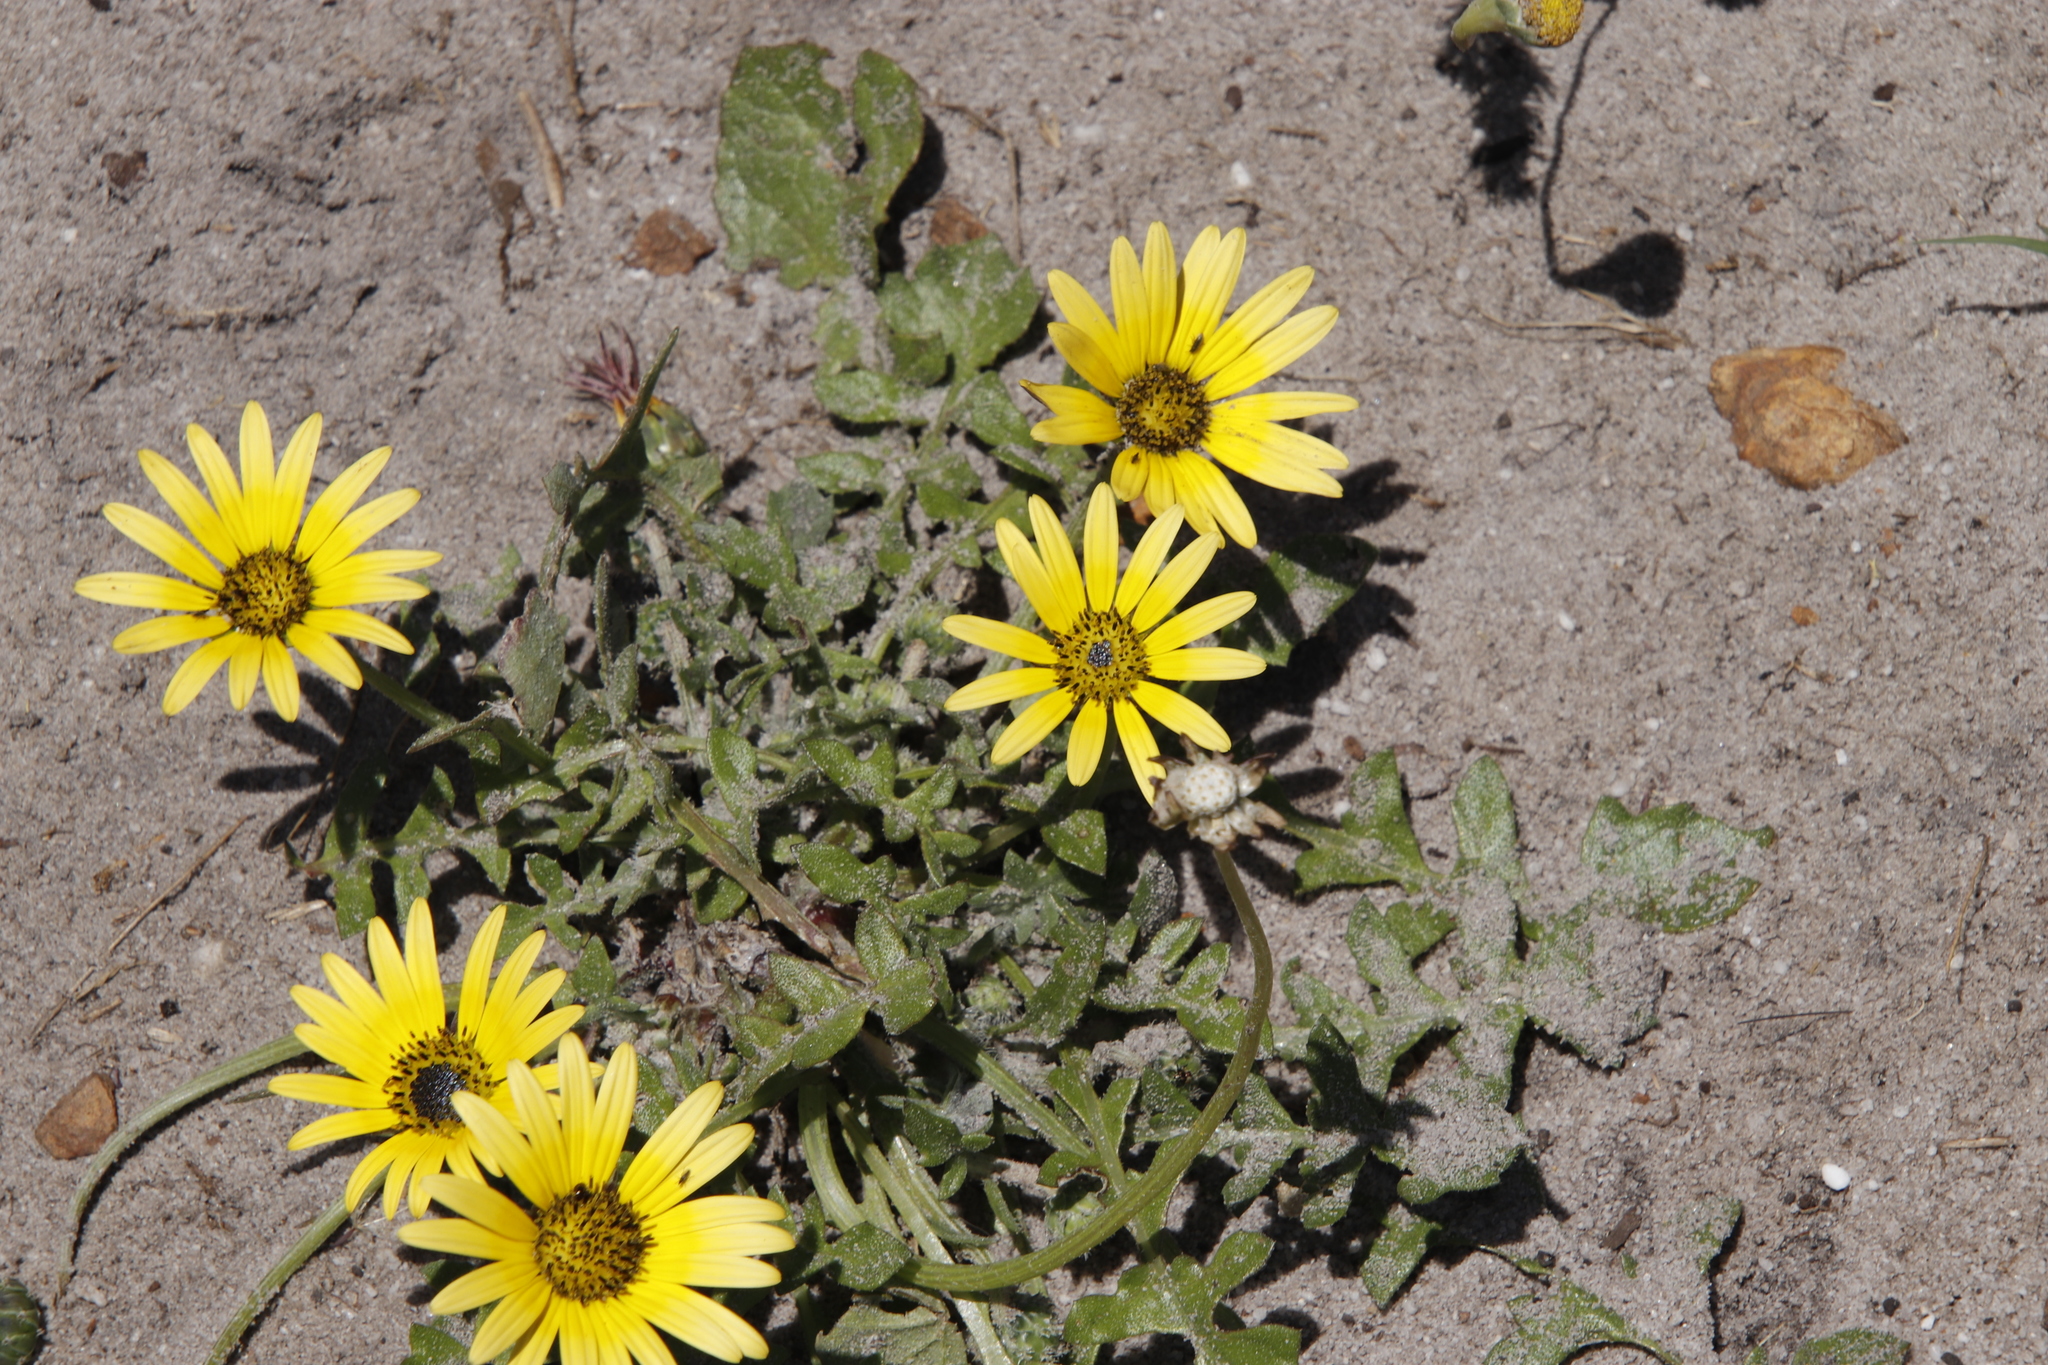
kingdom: Plantae
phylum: Tracheophyta
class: Magnoliopsida
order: Asterales
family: Asteraceae
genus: Arctotheca
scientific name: Arctotheca calendula
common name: Capeweed
